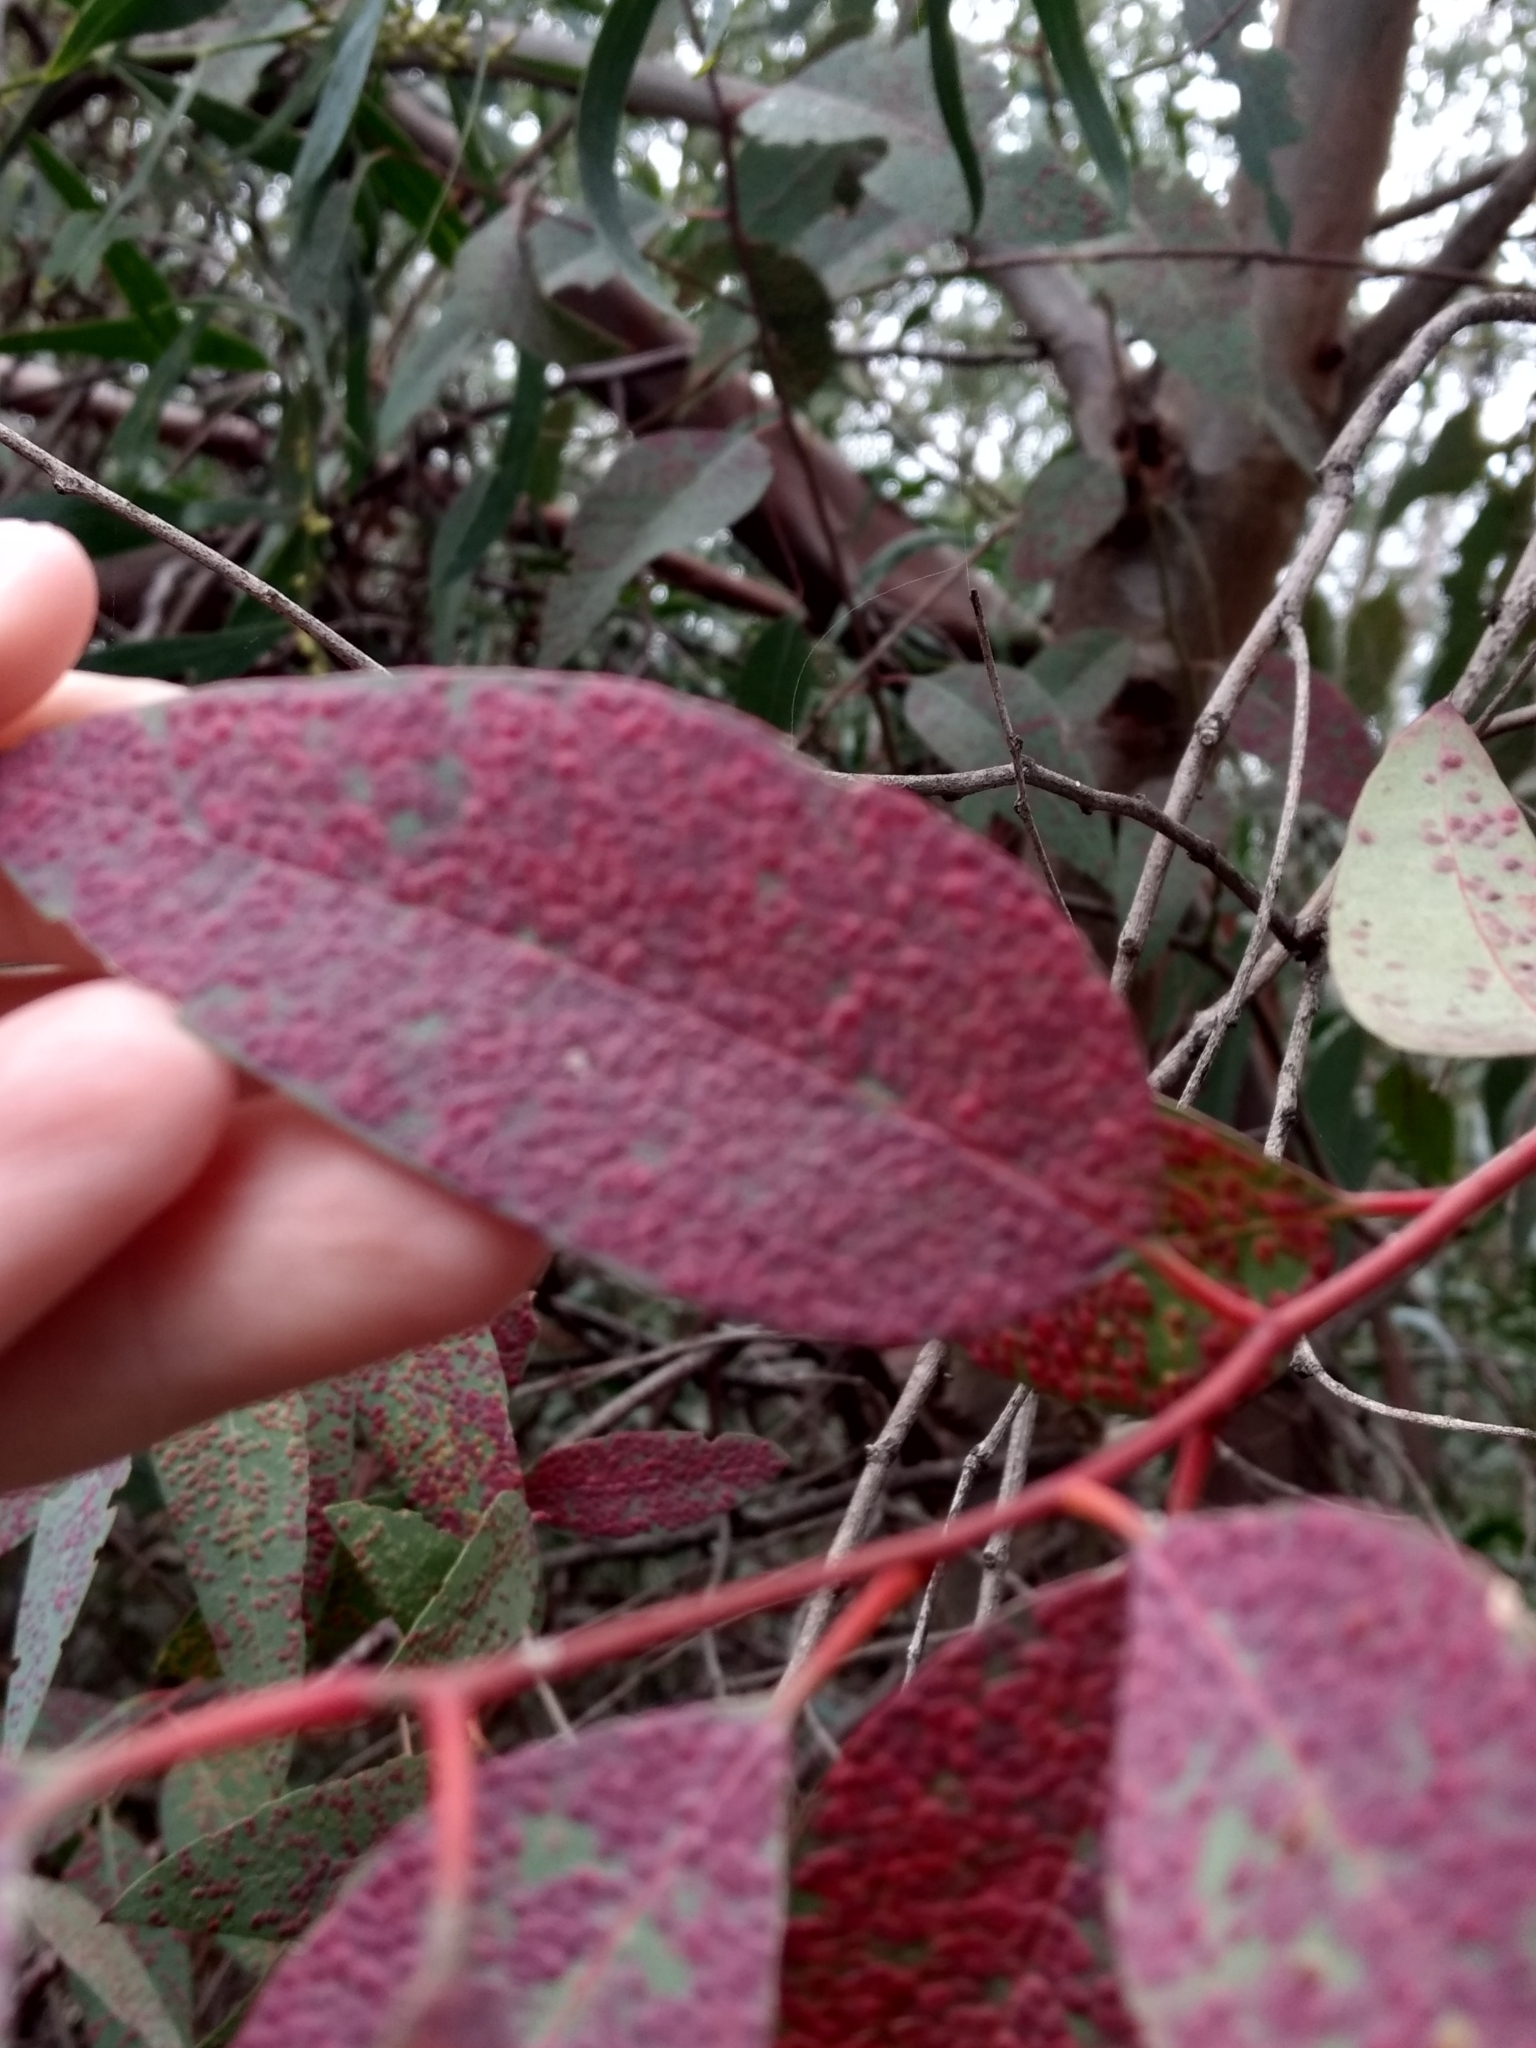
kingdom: Animalia
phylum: Arthropoda
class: Insecta
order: Hymenoptera
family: Eulophidae
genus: Ophelimus
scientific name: Ophelimus maskelli
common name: Gall wasp
